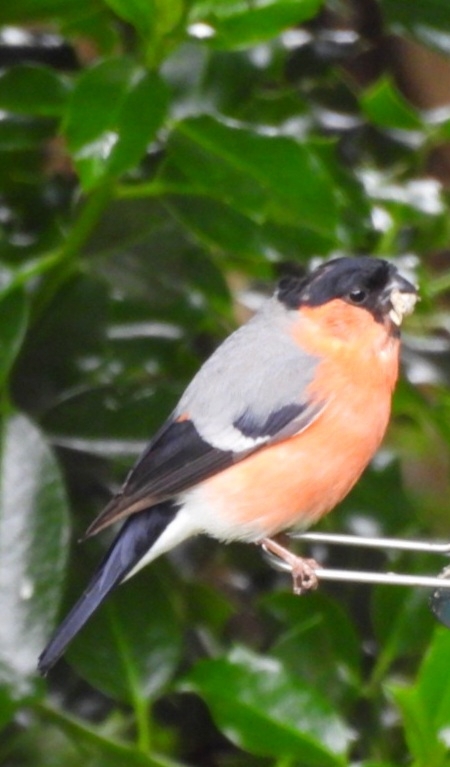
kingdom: Animalia
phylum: Chordata
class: Aves
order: Passeriformes
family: Fringillidae
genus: Pyrrhula
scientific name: Pyrrhula pyrrhula
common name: Eurasian bullfinch
